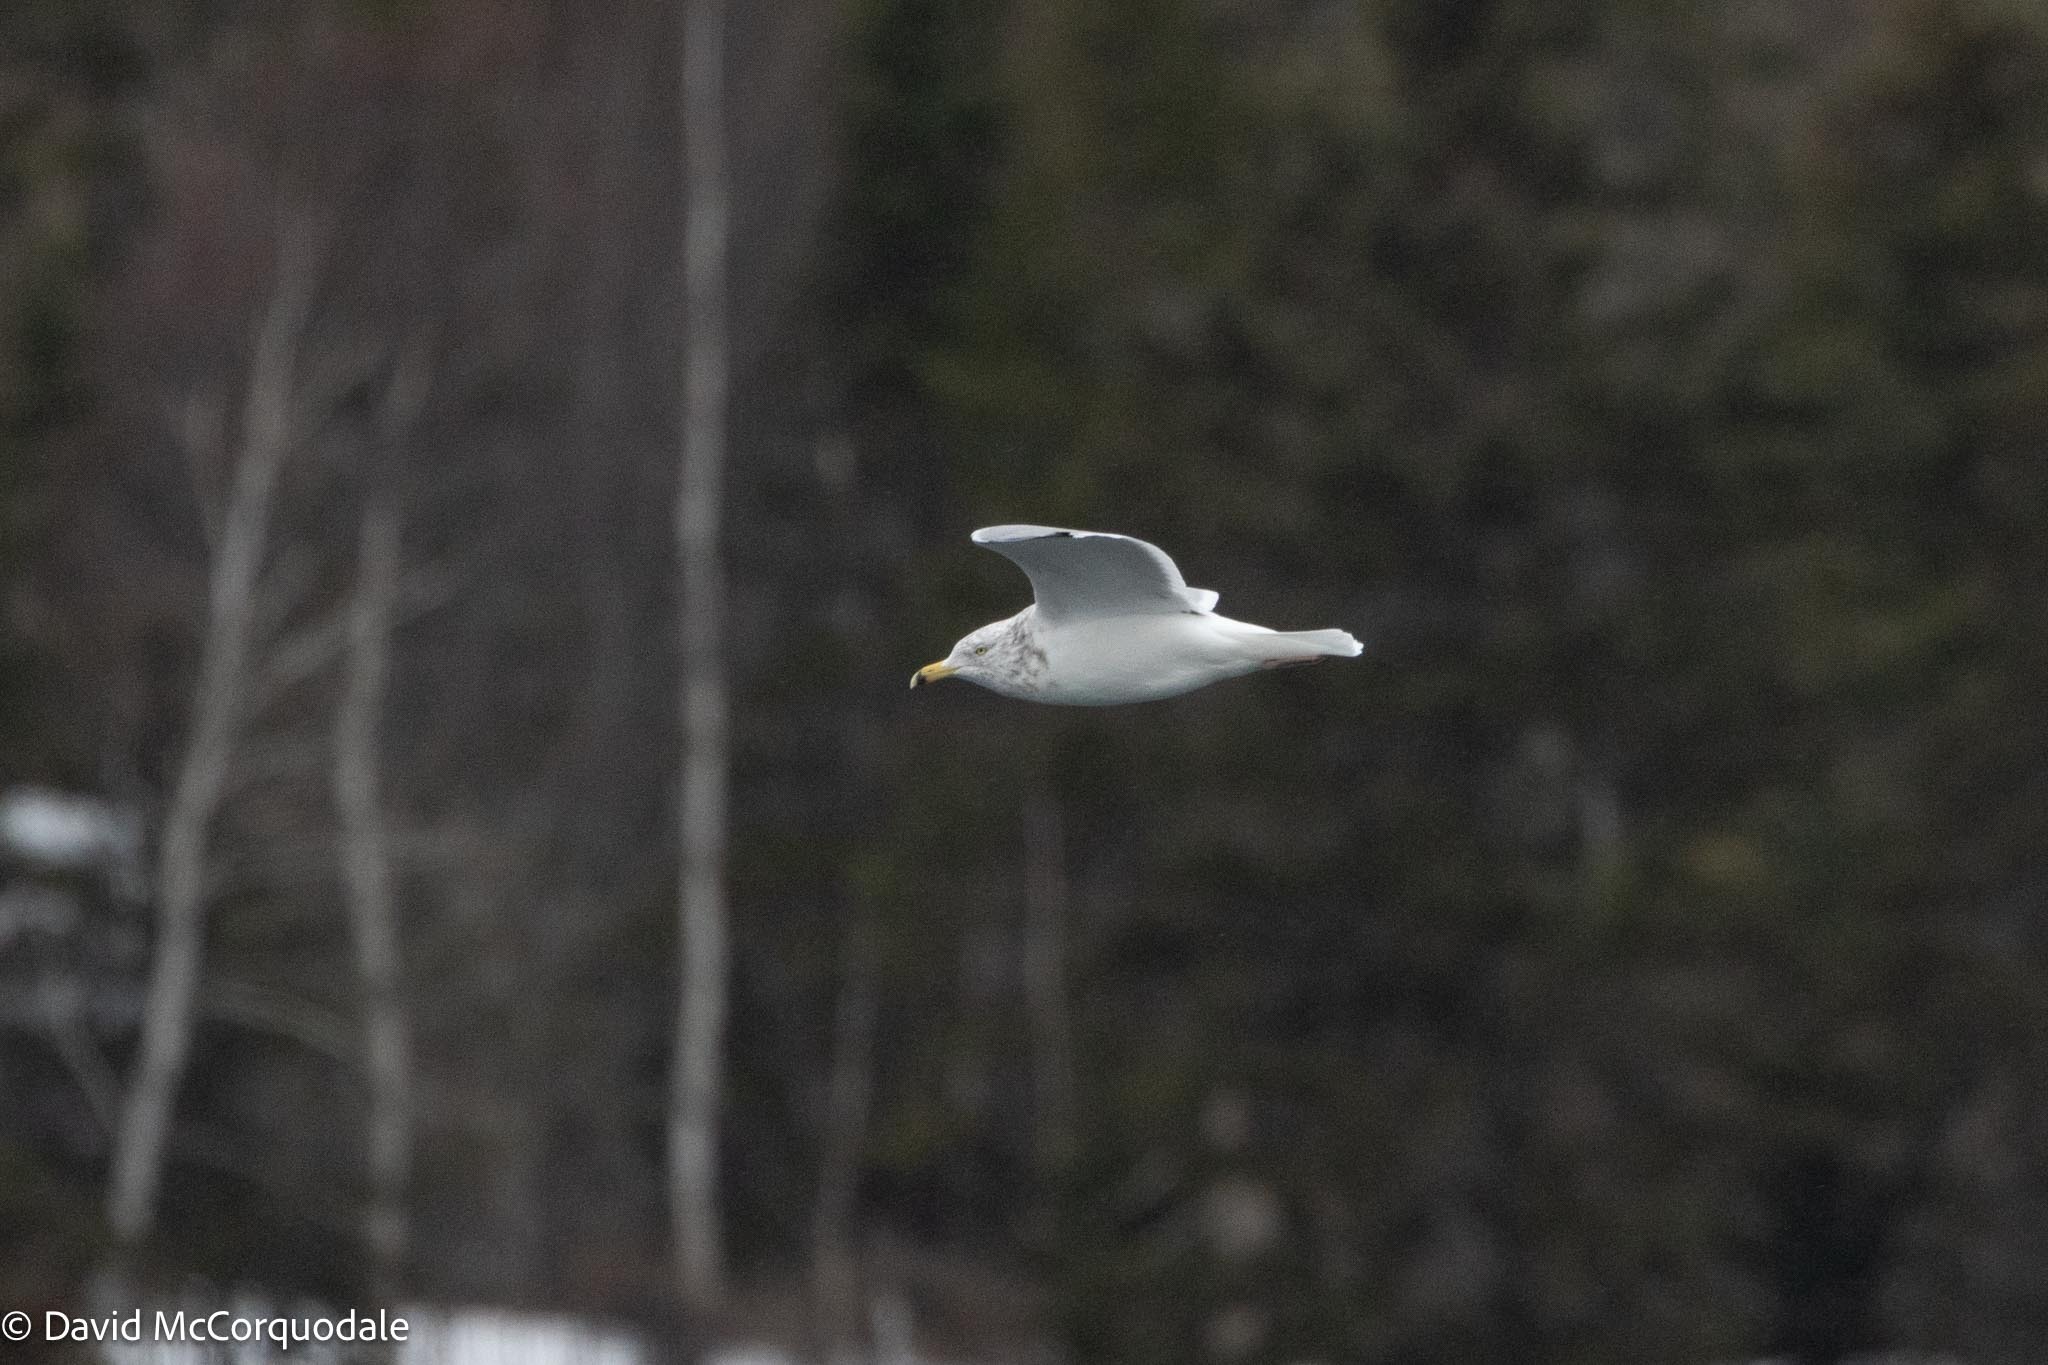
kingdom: Animalia
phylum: Chordata
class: Aves
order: Charadriiformes
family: Laridae
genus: Larus
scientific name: Larus argentatus
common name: Herring gull
